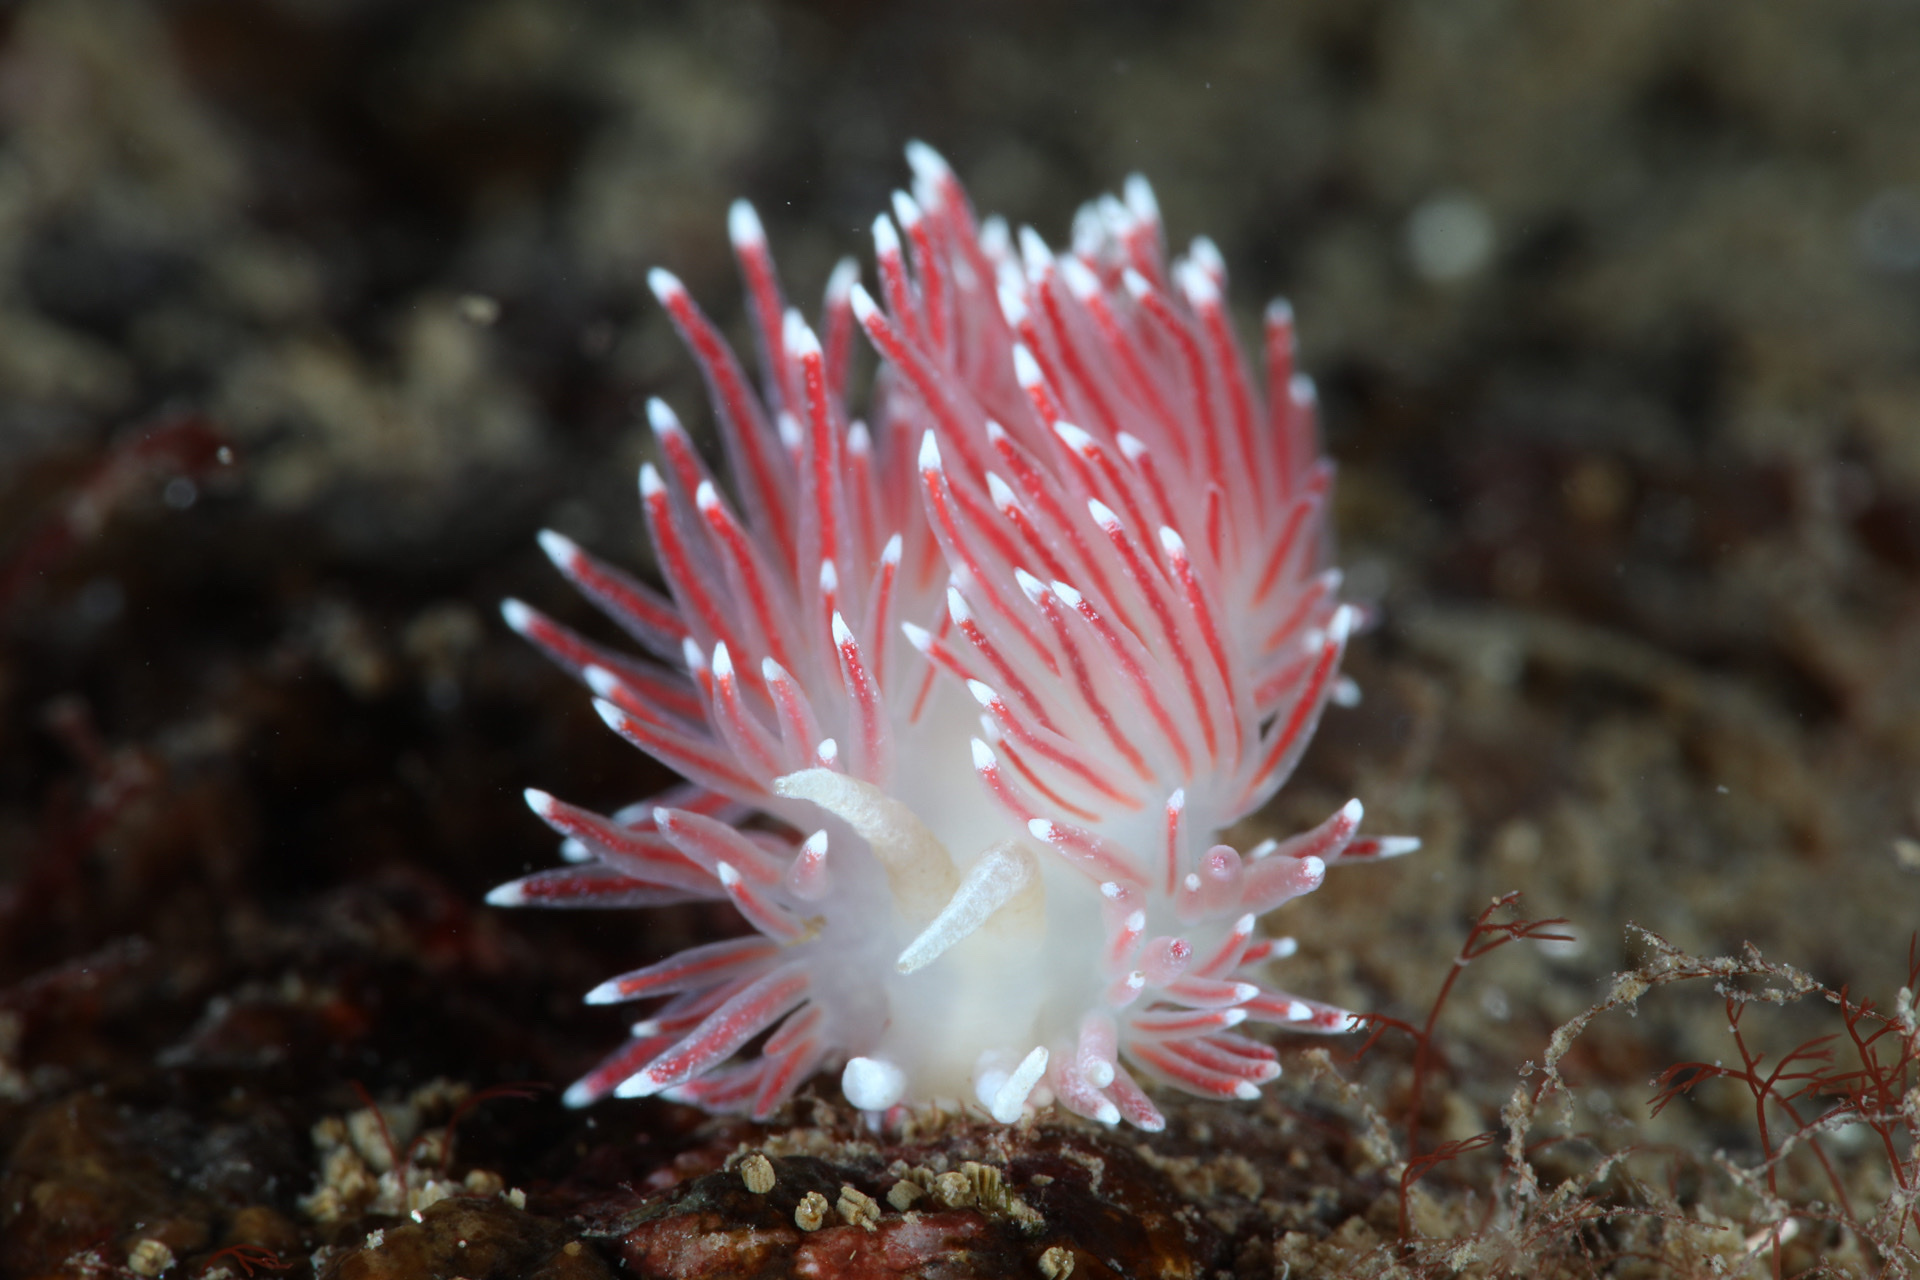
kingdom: Animalia
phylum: Mollusca
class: Gastropoda
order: Nudibranchia
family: Flabellinidae
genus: Carronella
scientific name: Carronella pellucida
